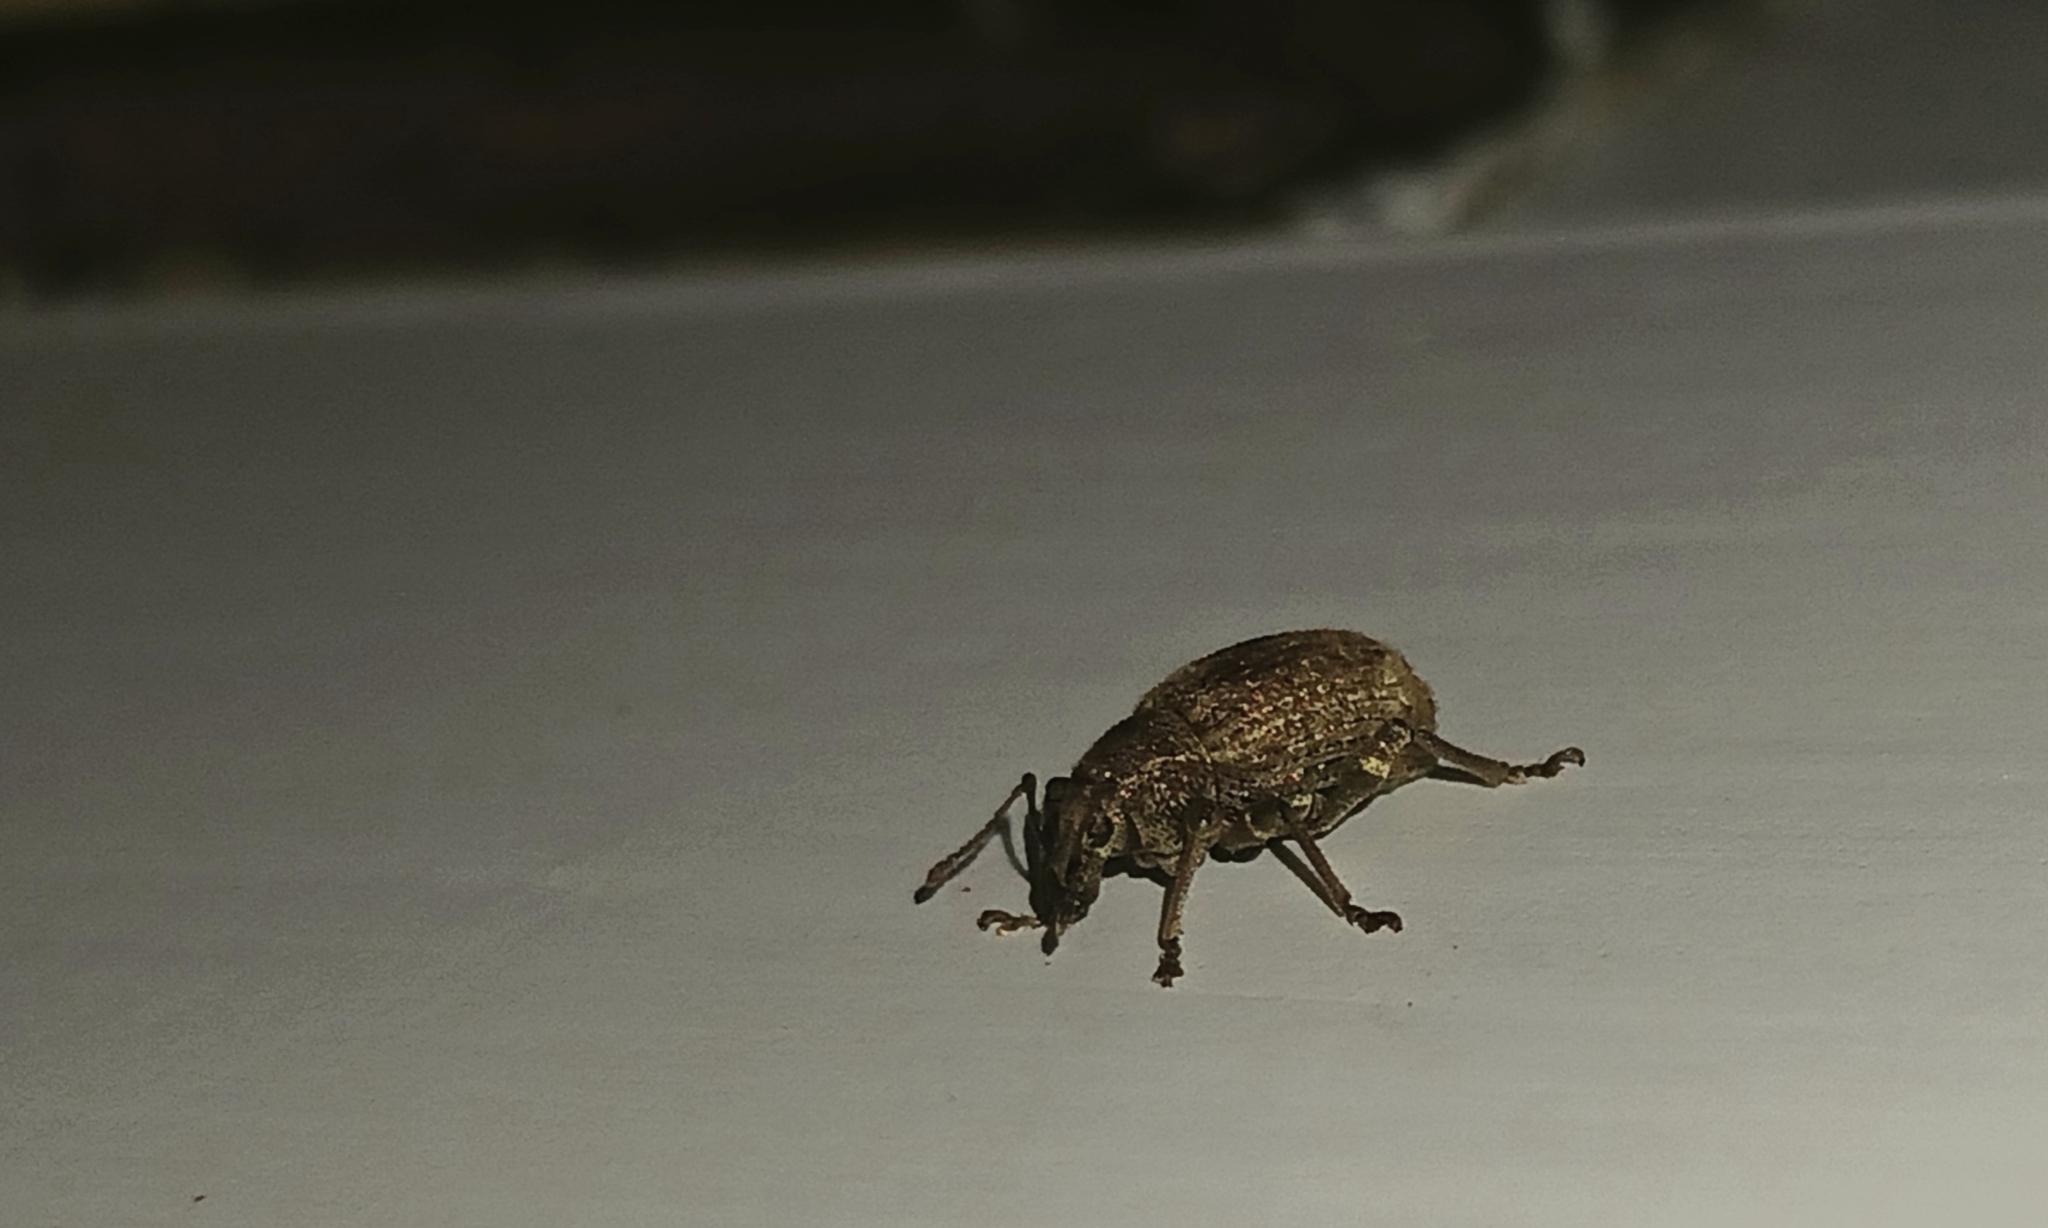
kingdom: Animalia
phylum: Arthropoda
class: Insecta
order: Coleoptera
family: Curculionidae
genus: Phlyctinus
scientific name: Phlyctinus callosus
